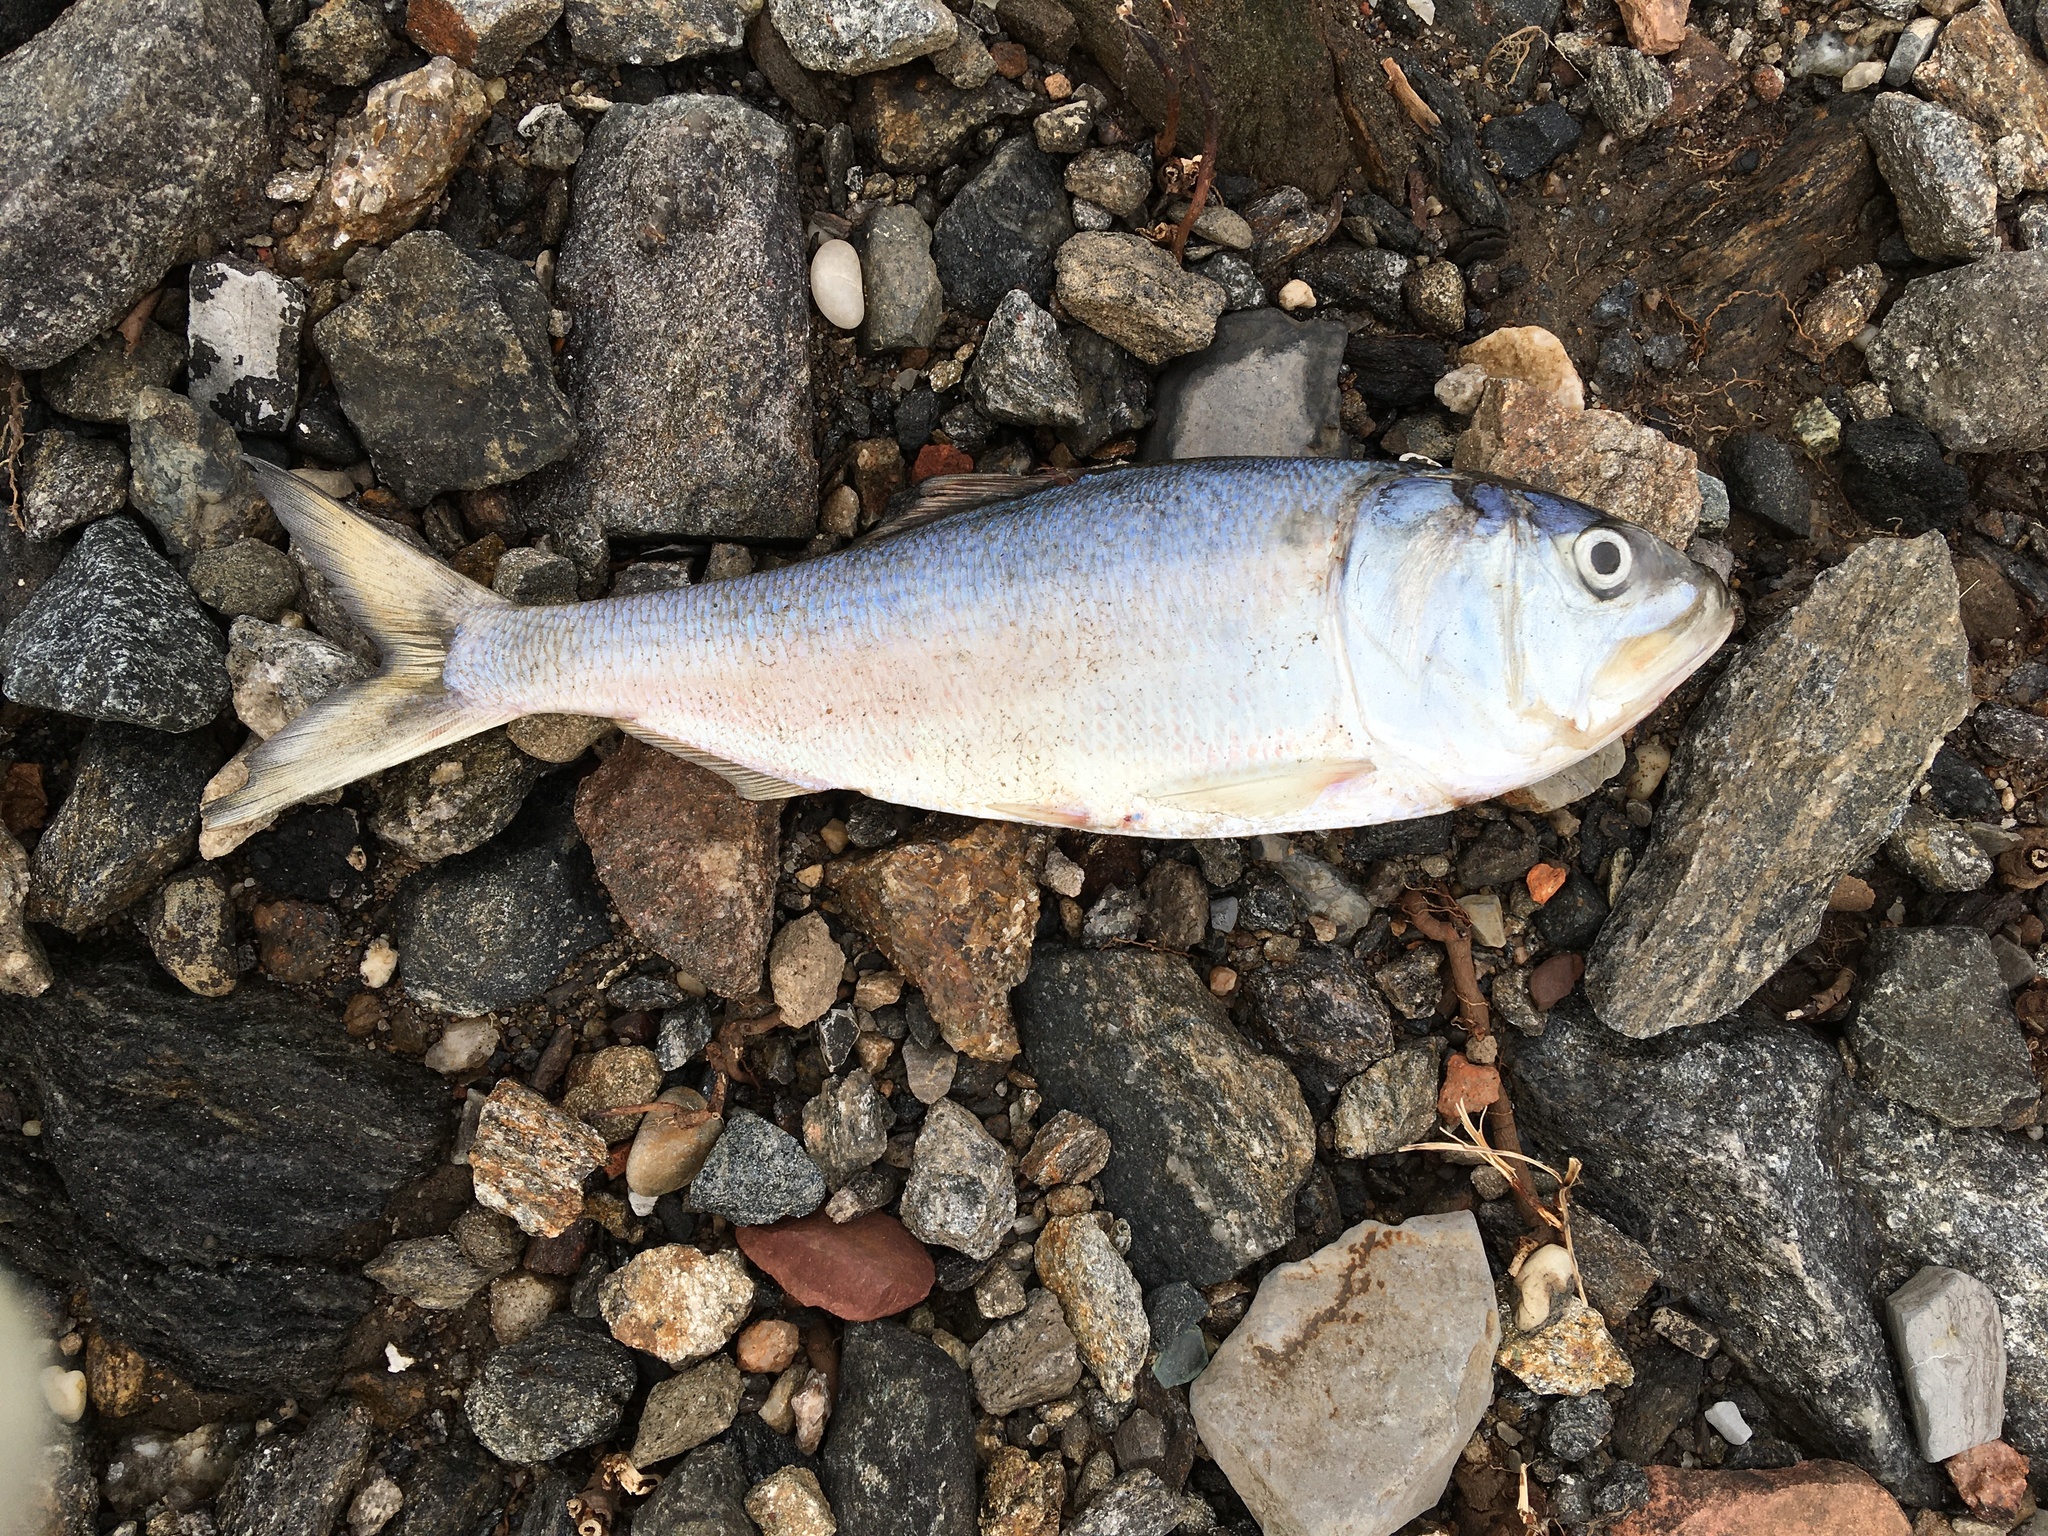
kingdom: Animalia
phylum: Chordata
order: Clupeiformes
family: Clupeidae
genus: Brevoortia
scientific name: Brevoortia tyrannus
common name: Atlantic menhaden
